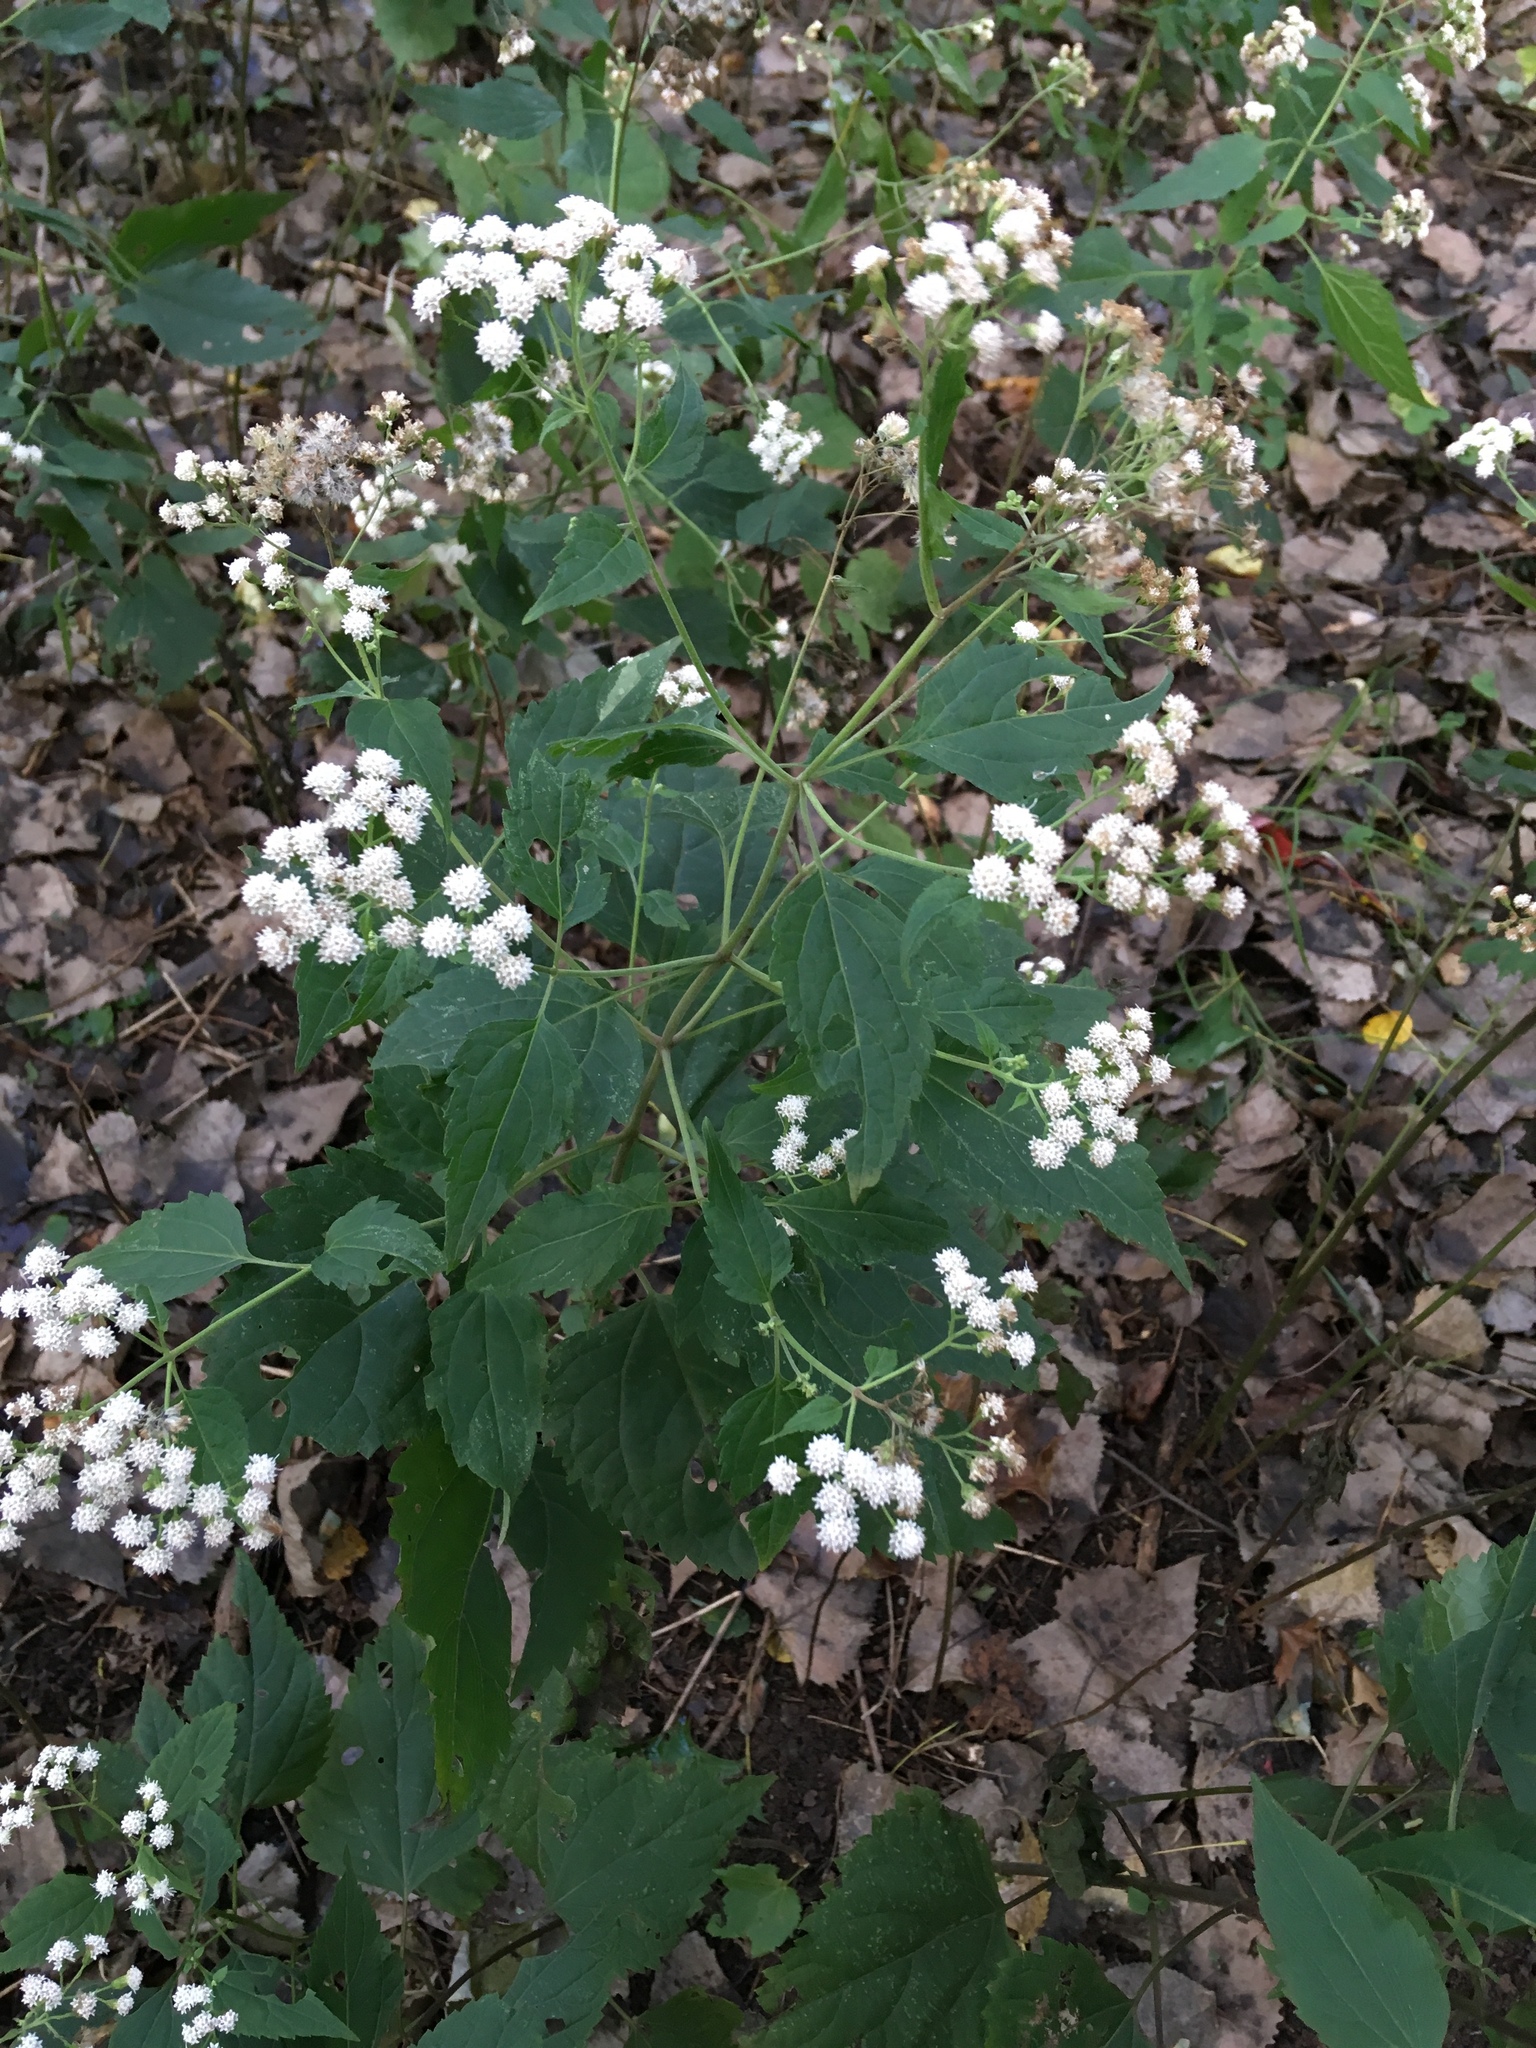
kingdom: Plantae
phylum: Tracheophyta
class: Magnoliopsida
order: Asterales
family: Asteraceae
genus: Ageratina
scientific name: Ageratina altissima
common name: White snakeroot
